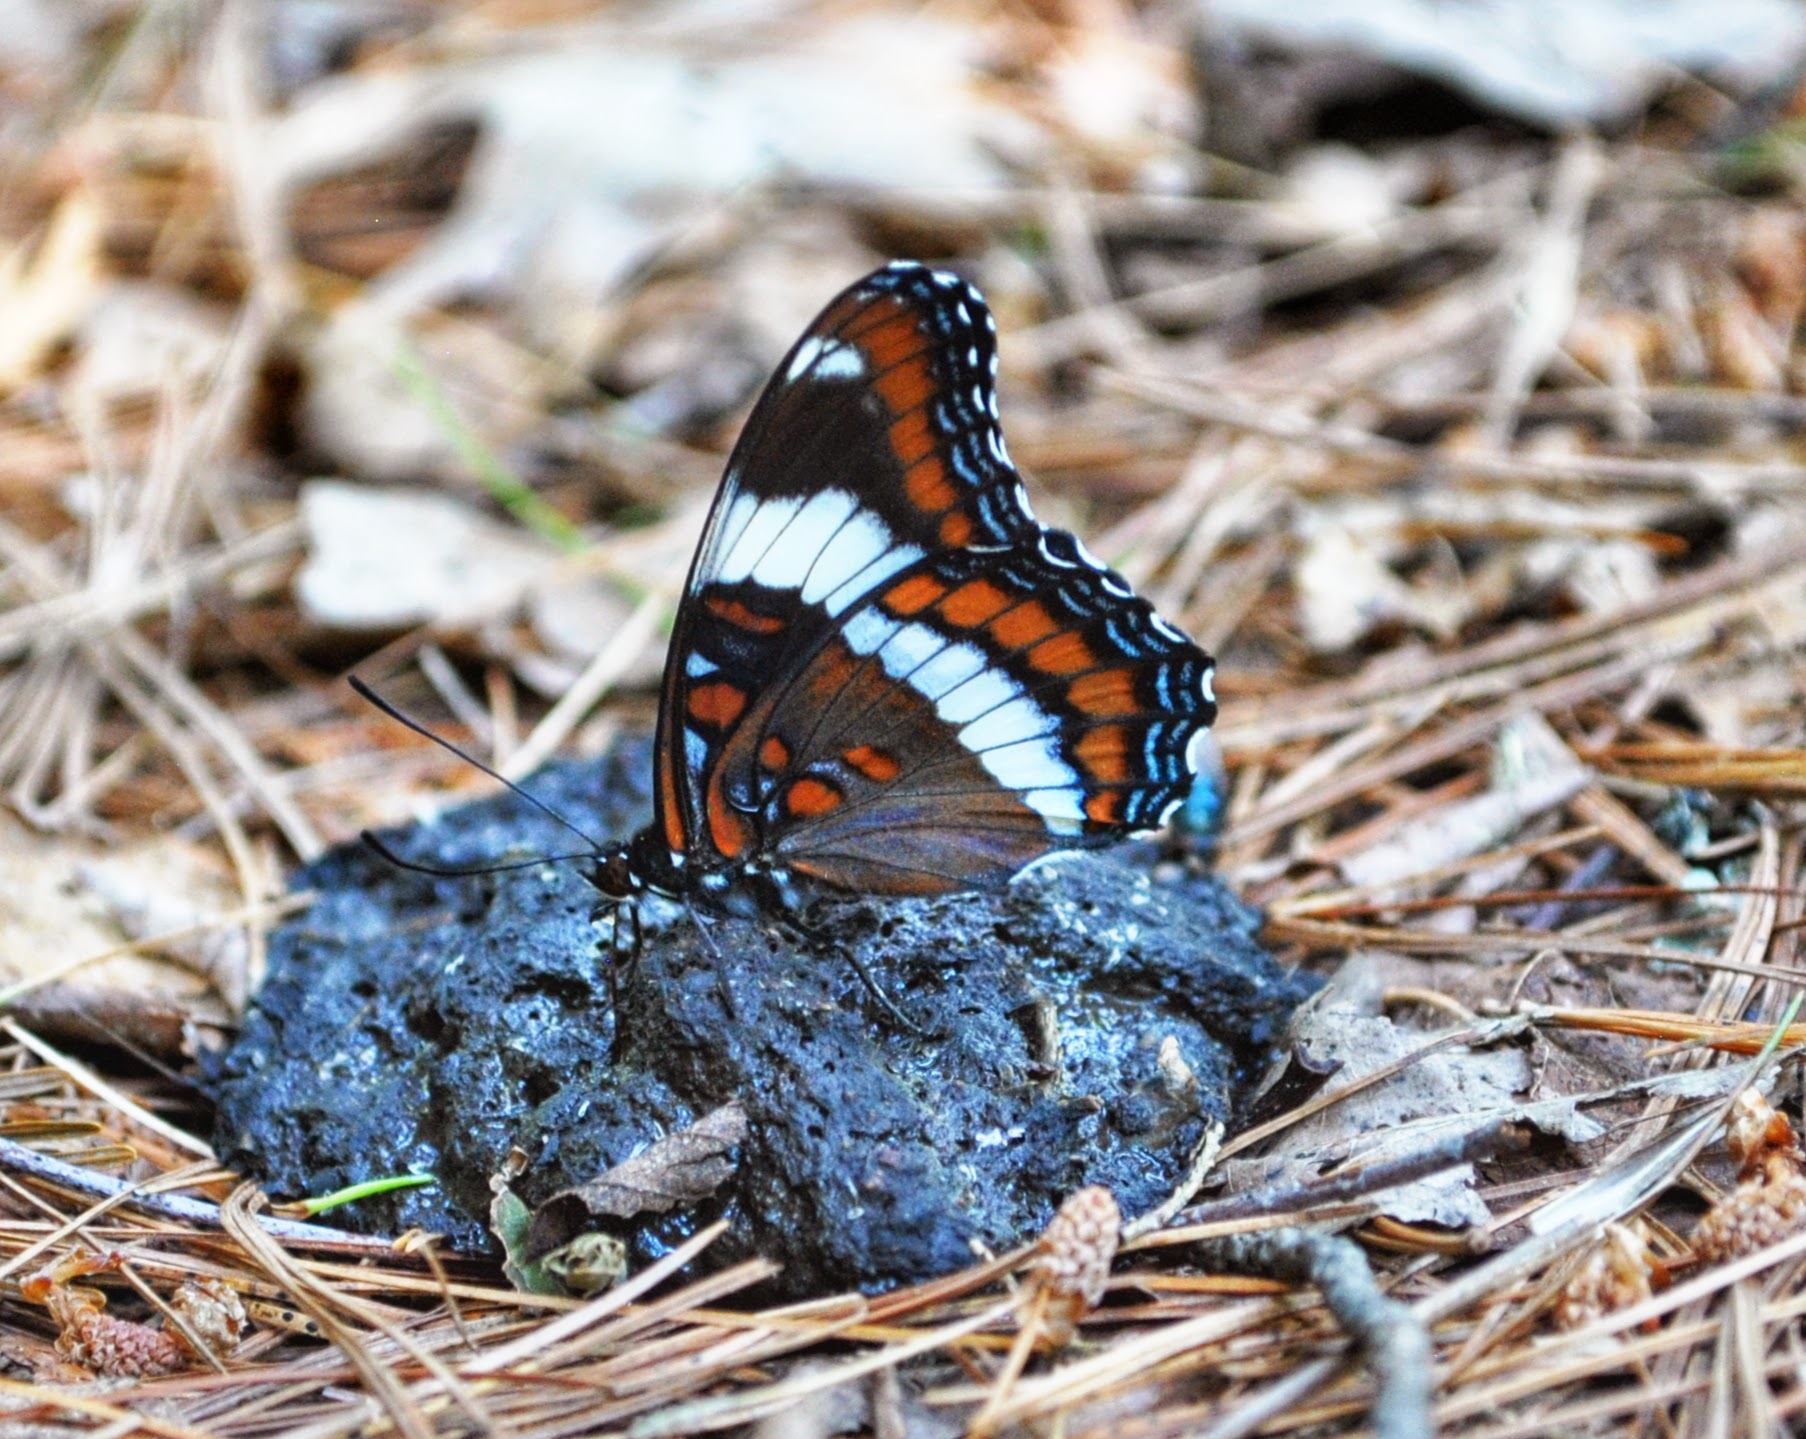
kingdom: Animalia
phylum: Arthropoda
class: Insecta
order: Lepidoptera
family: Nymphalidae
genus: Limenitis
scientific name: Limenitis arthemis
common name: Red-spotted admiral
